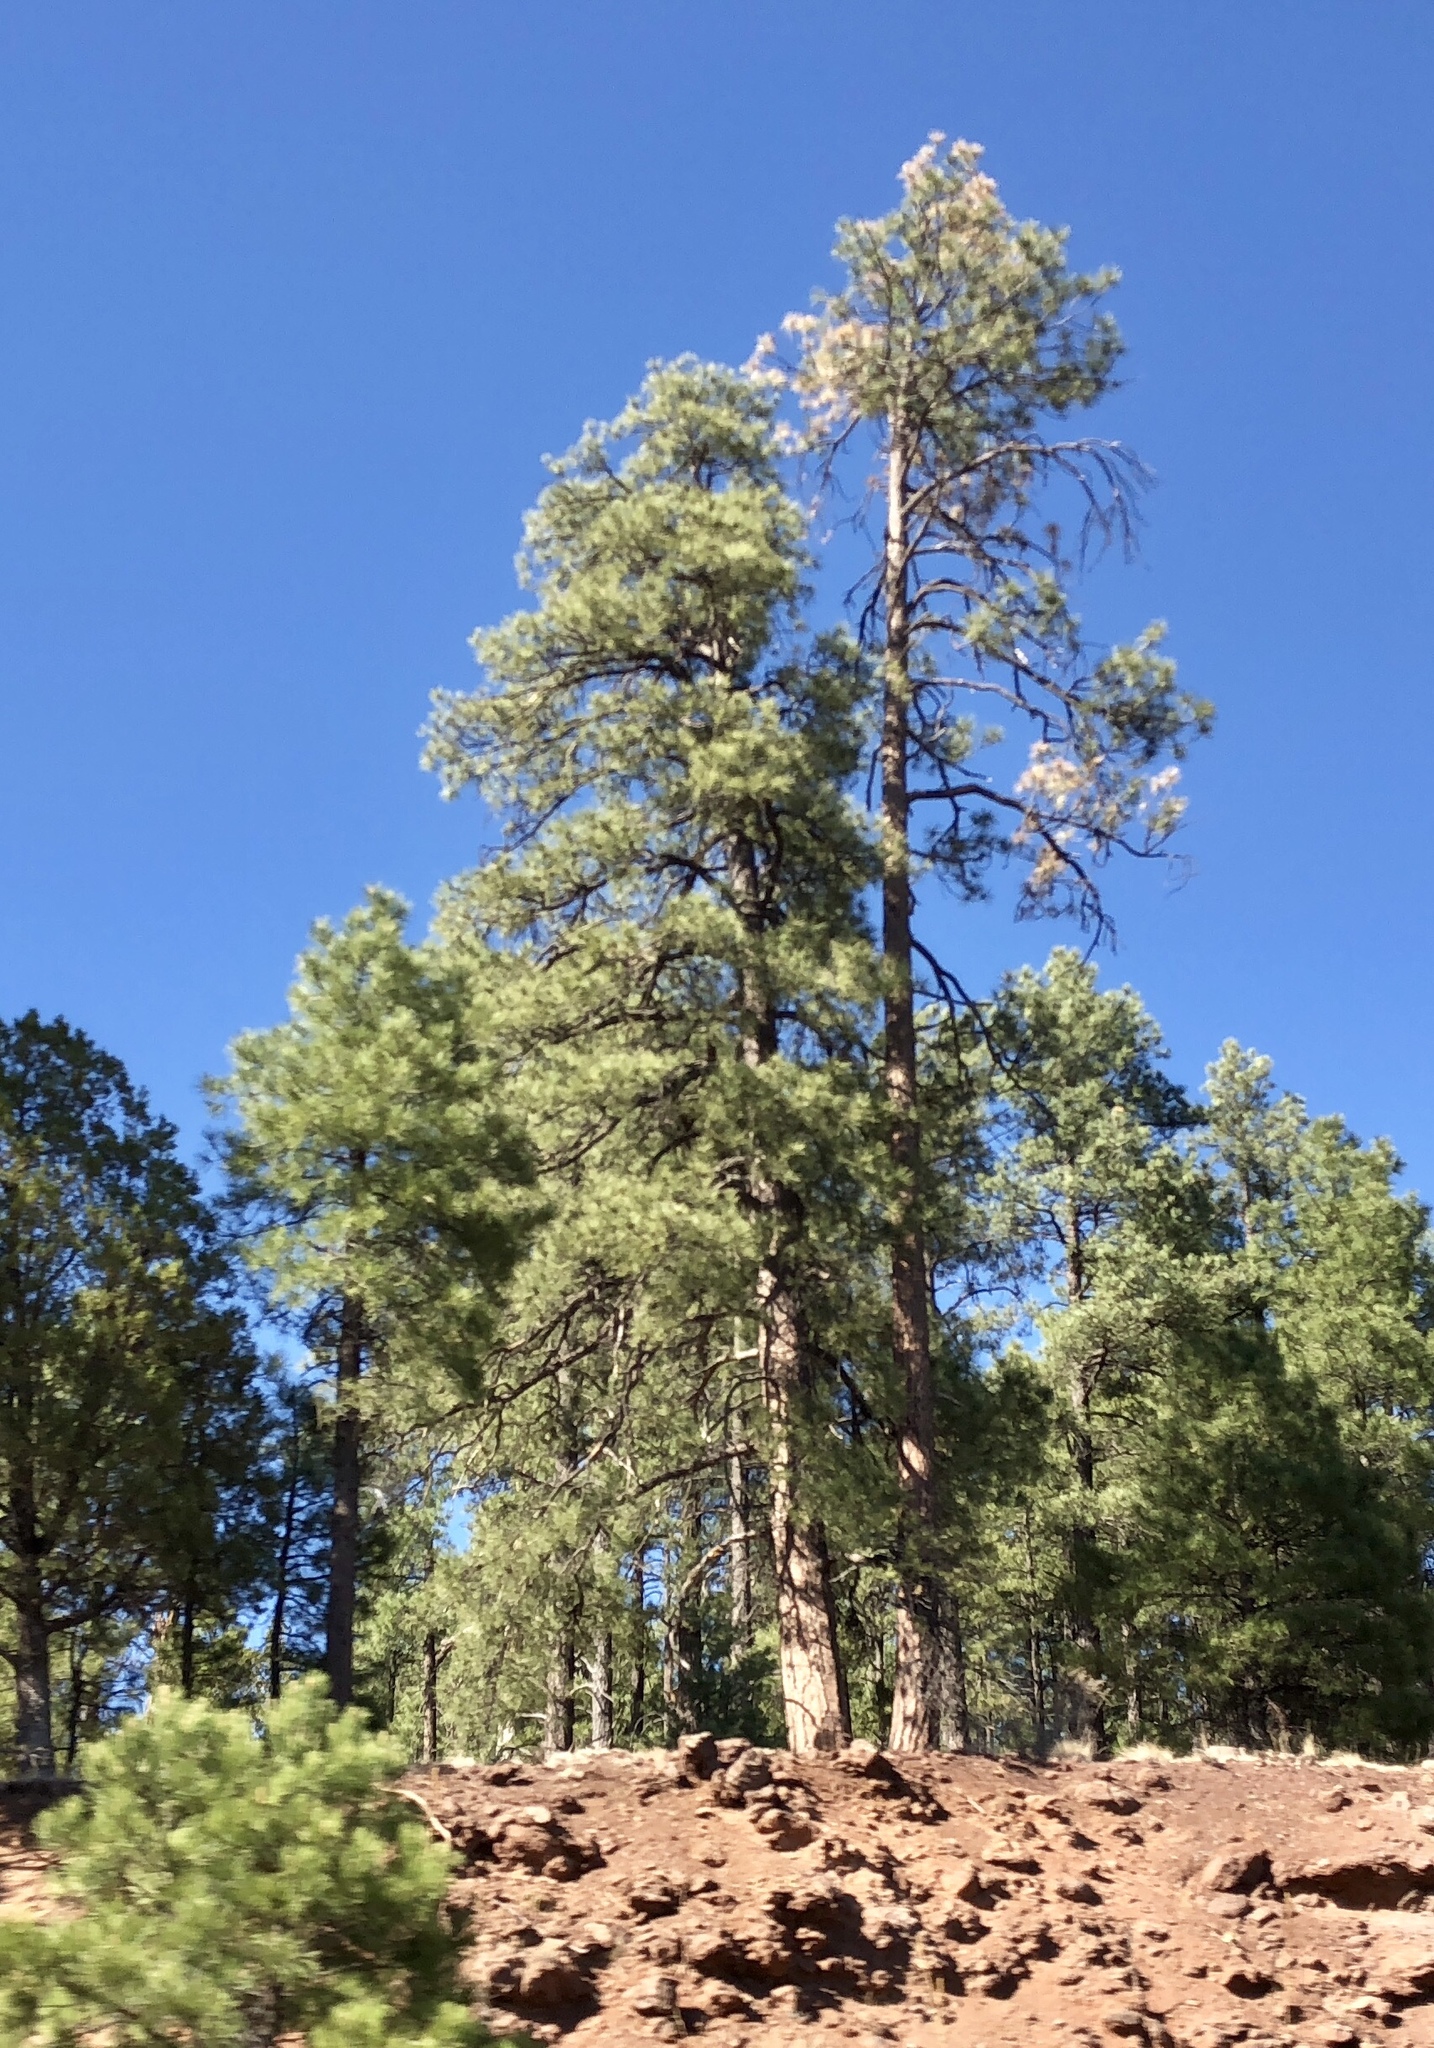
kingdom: Plantae
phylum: Tracheophyta
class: Pinopsida
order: Pinales
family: Pinaceae
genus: Pinus
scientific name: Pinus ponderosa
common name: Western yellow-pine
